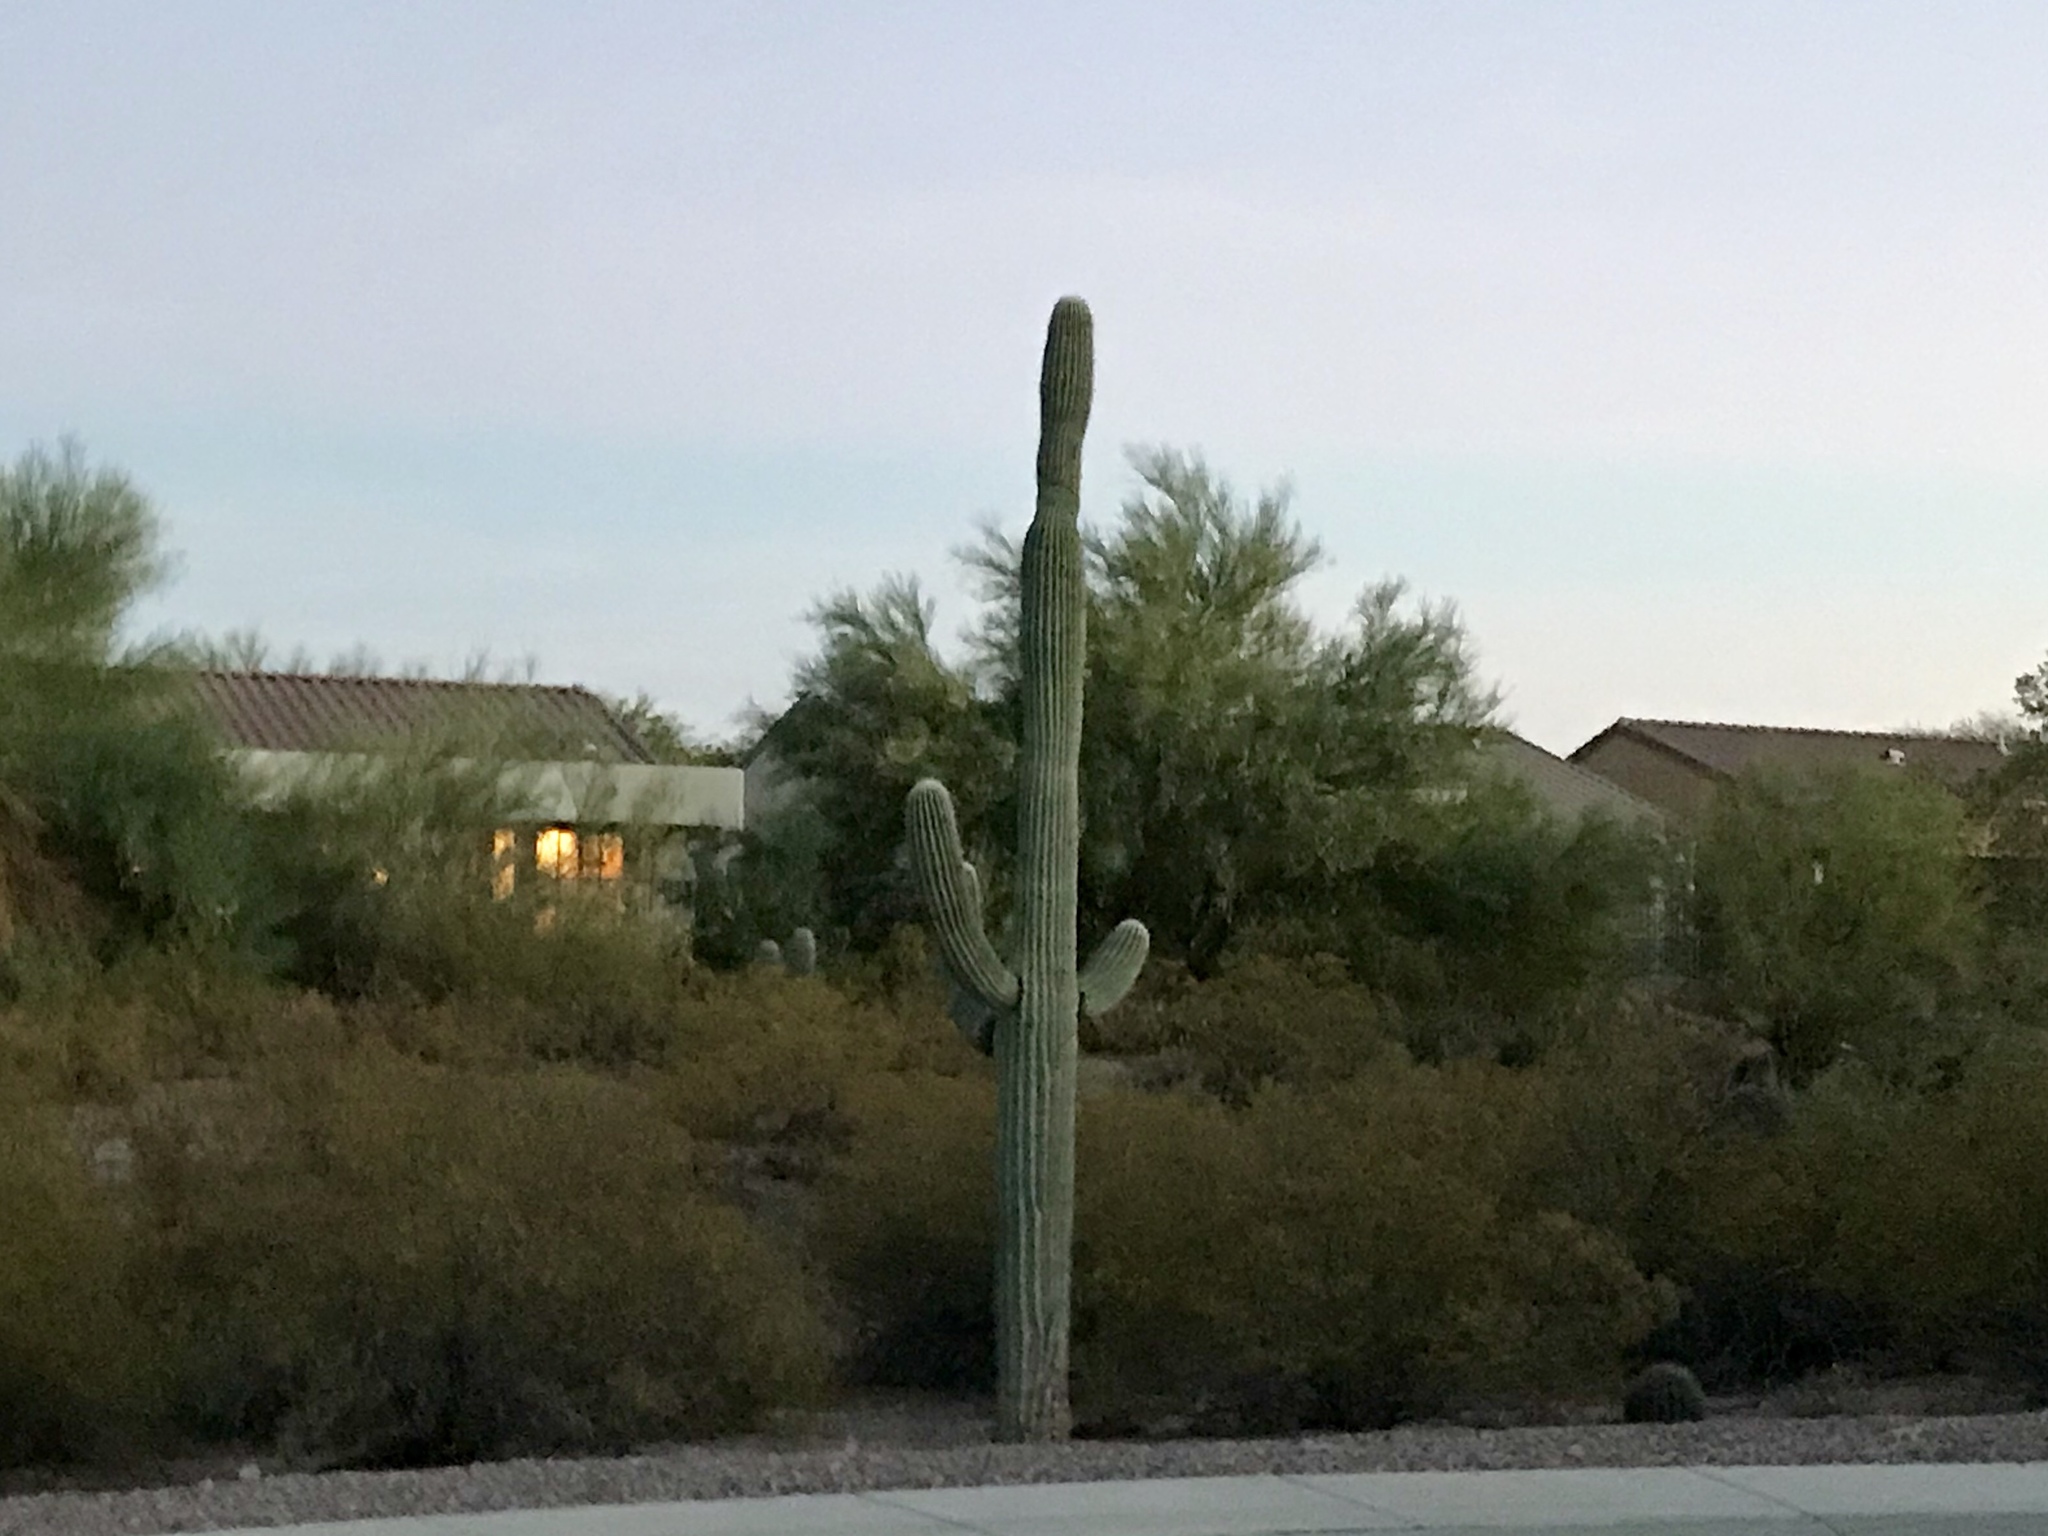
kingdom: Plantae
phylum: Tracheophyta
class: Magnoliopsida
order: Caryophyllales
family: Cactaceae
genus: Carnegiea
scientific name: Carnegiea gigantea
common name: Saguaro
